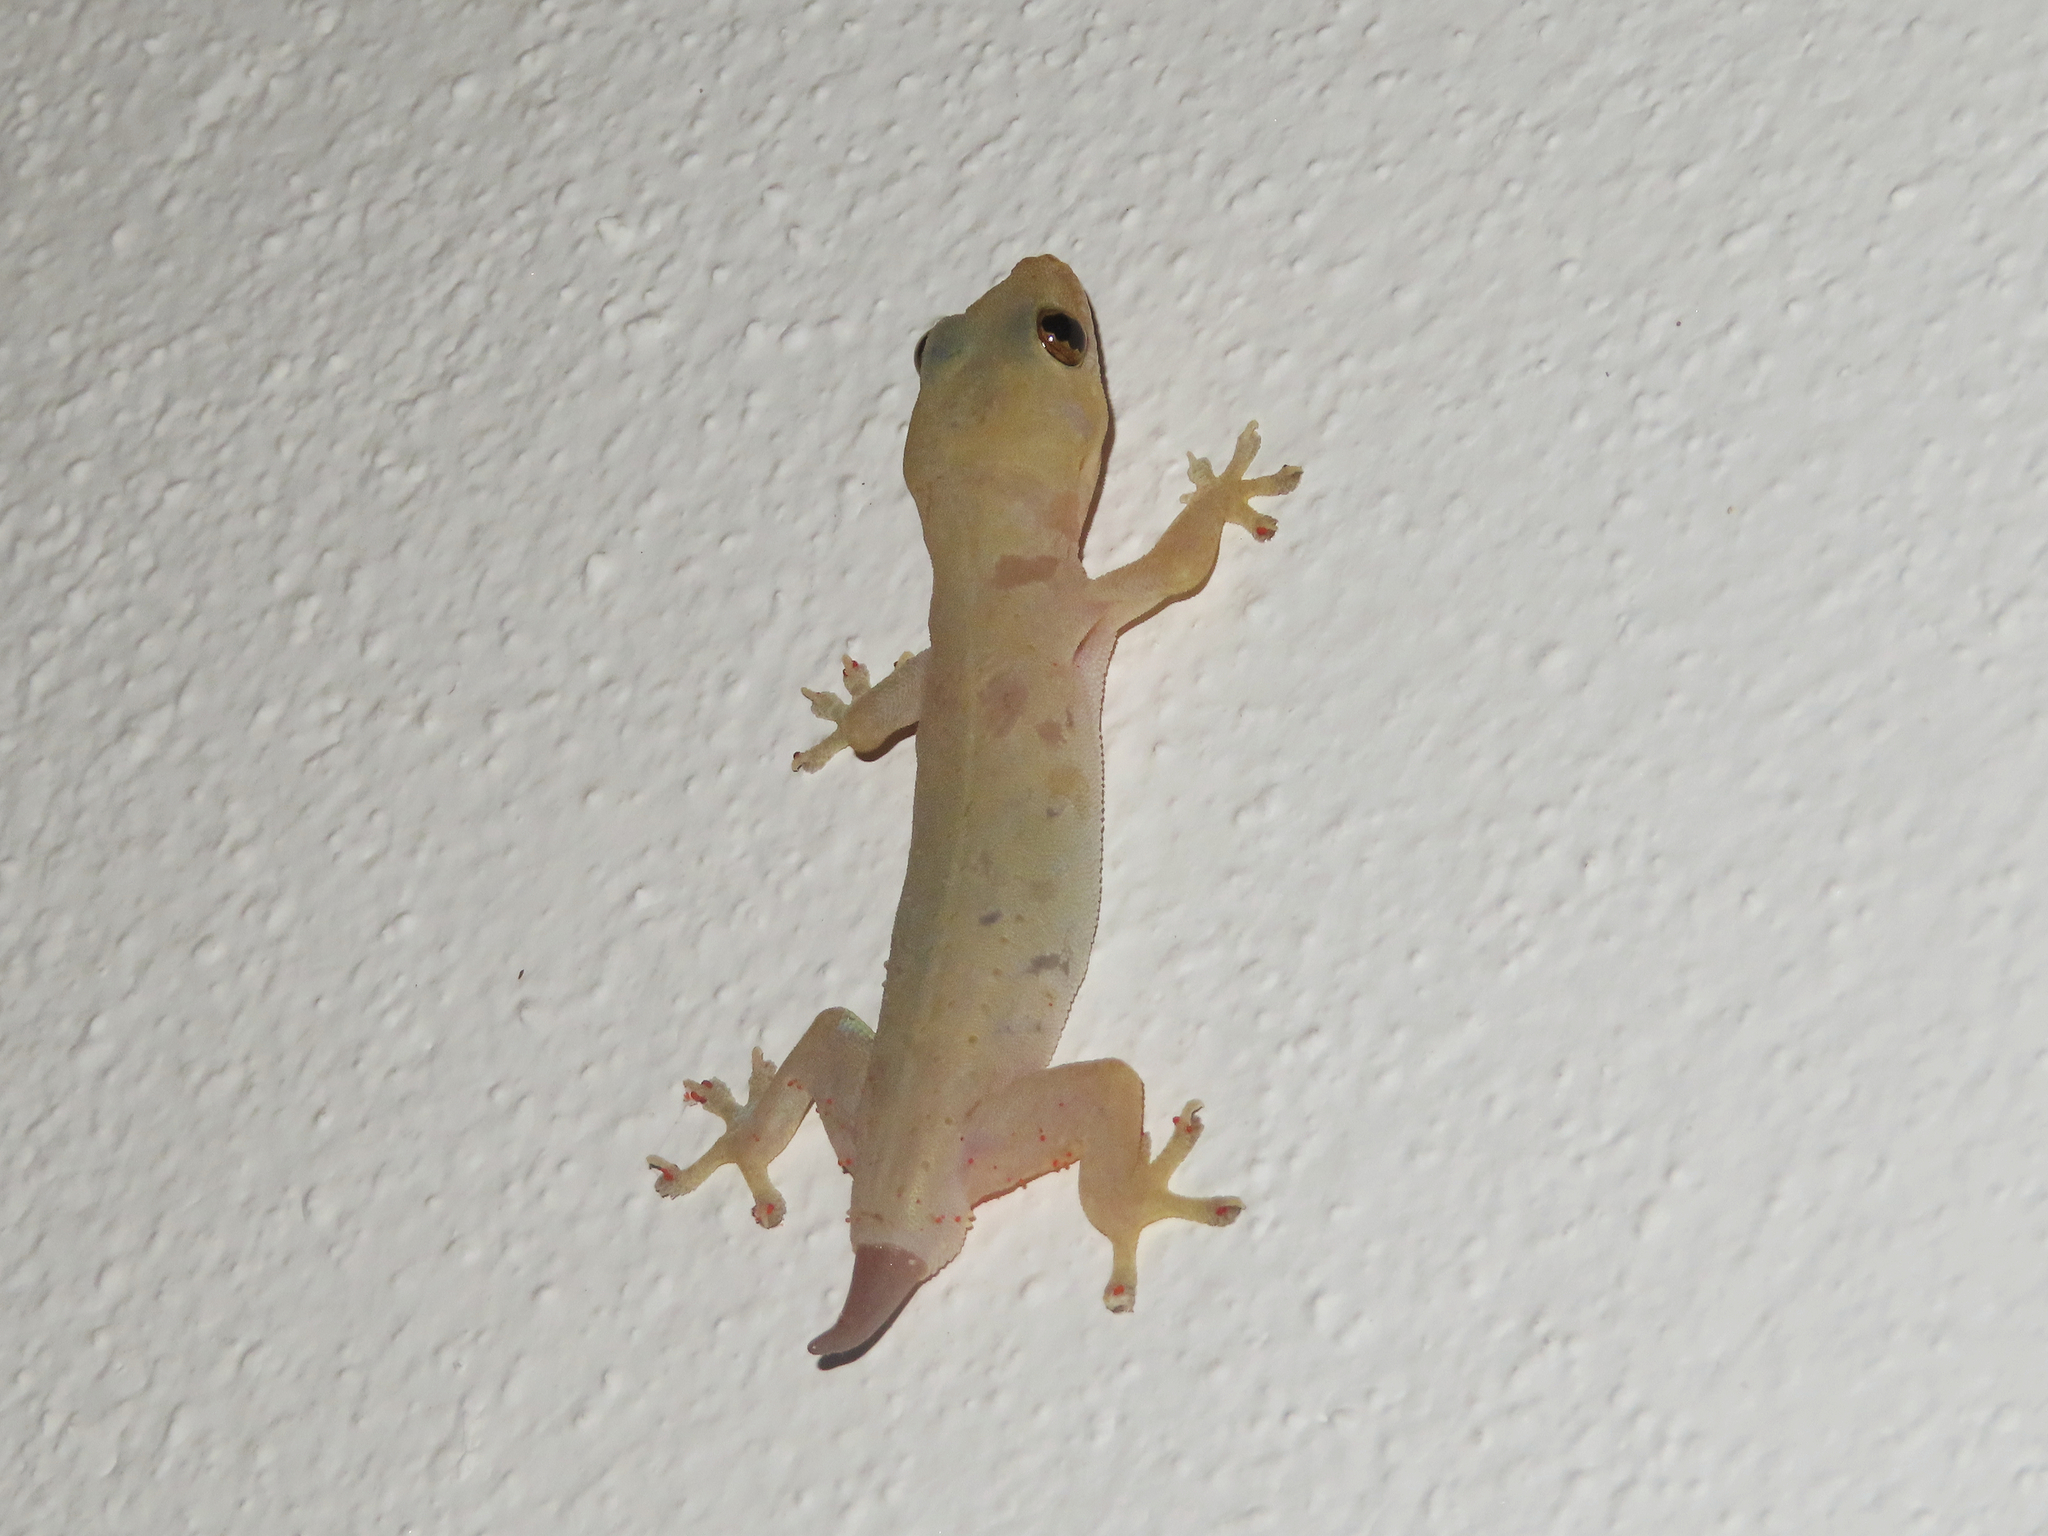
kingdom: Animalia
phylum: Chordata
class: Squamata
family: Gekkonidae
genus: Hemidactylus
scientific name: Hemidactylus frenatus
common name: Common house gecko
